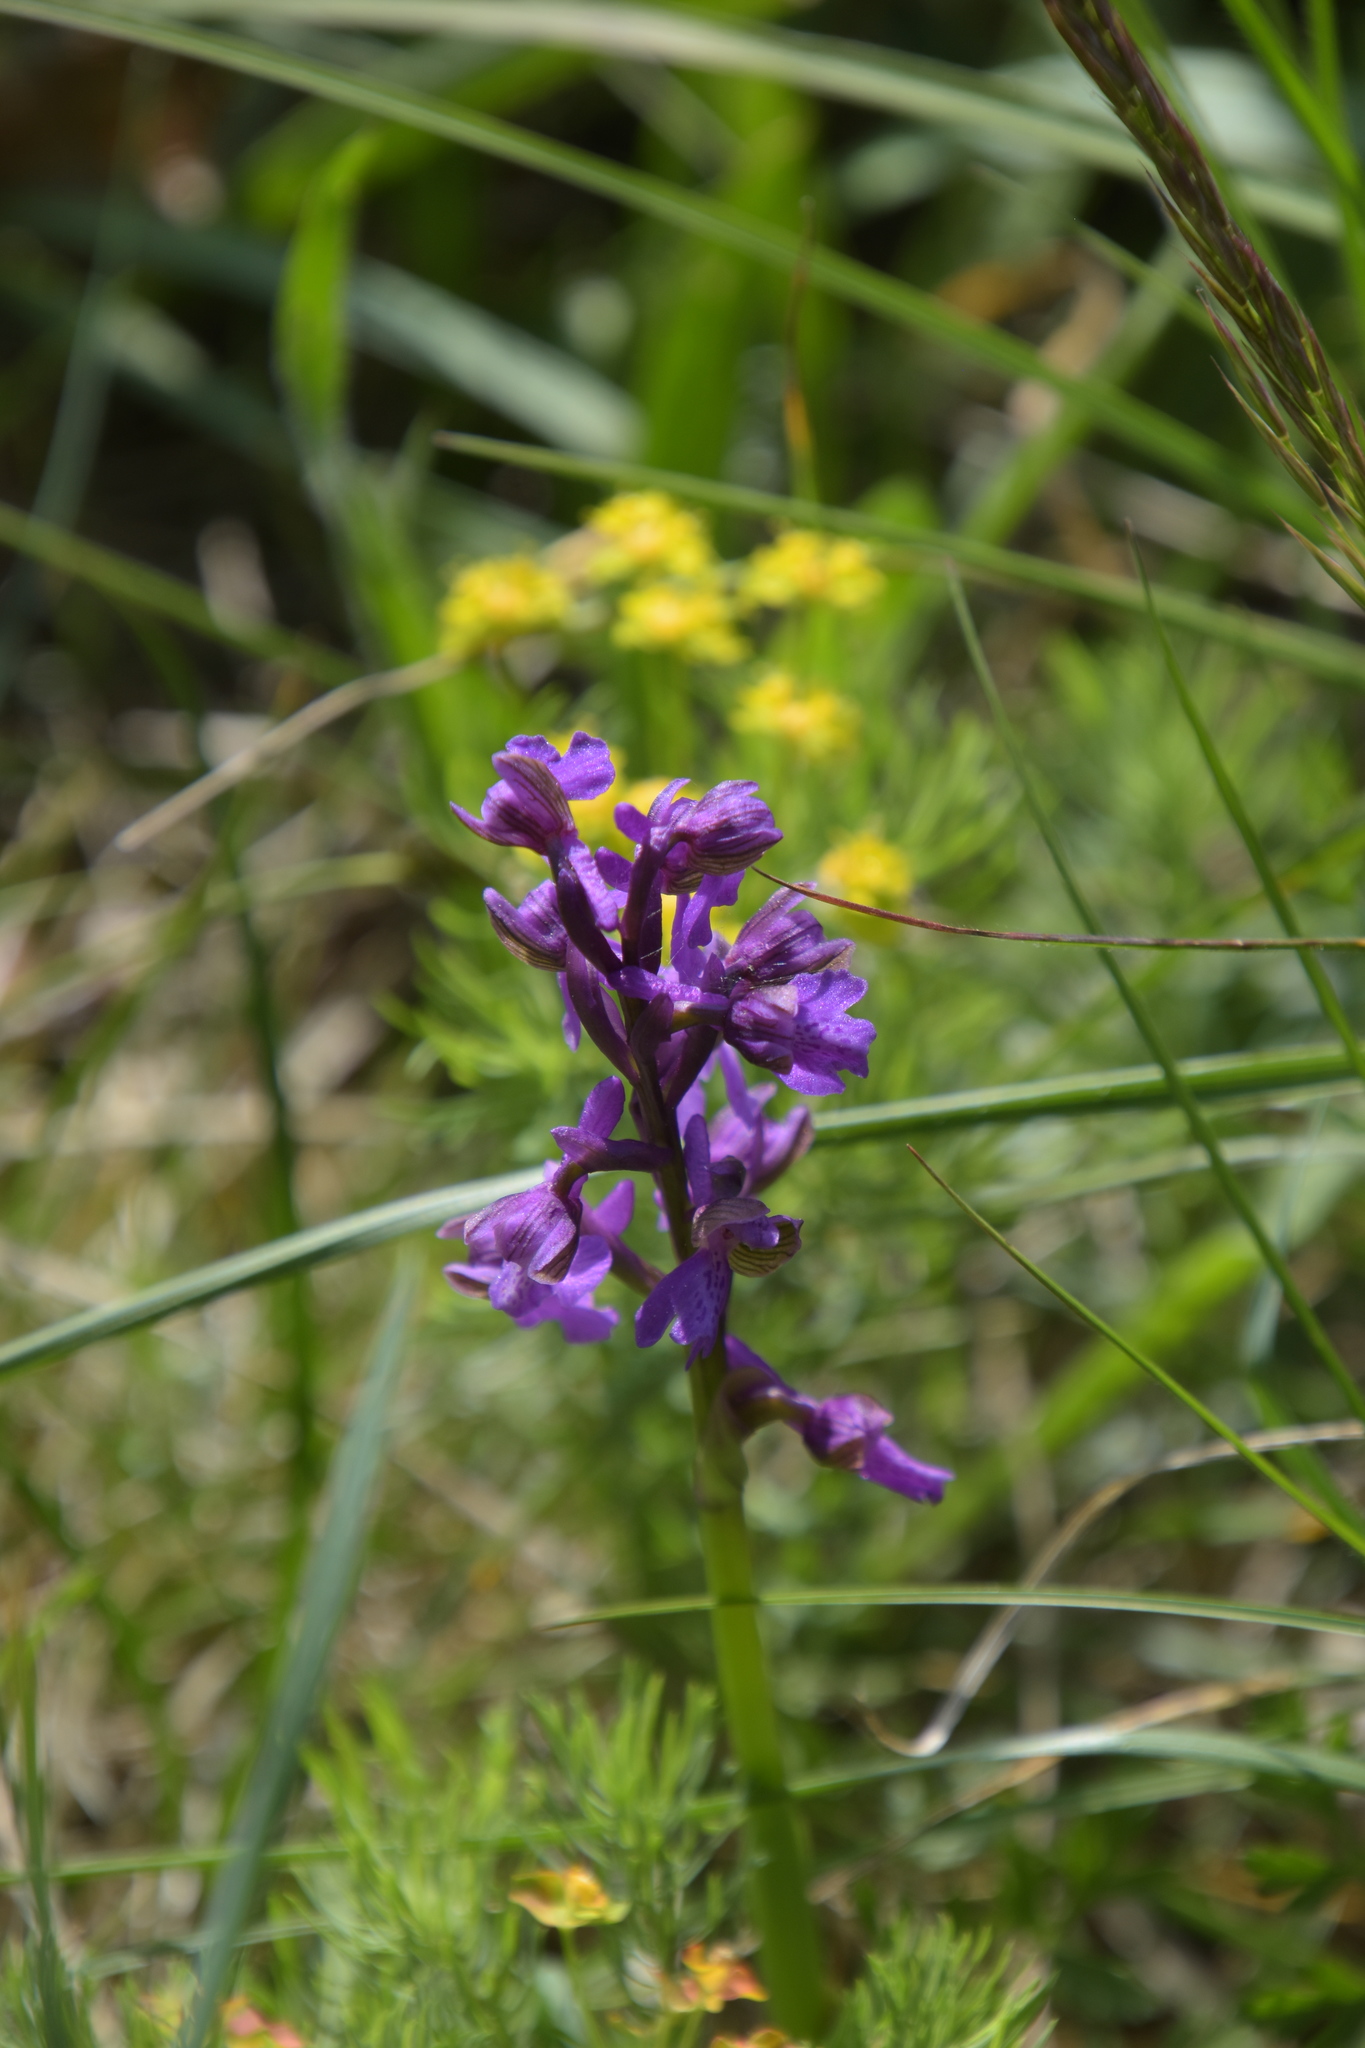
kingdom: Plantae
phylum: Tracheophyta
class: Liliopsida
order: Asparagales
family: Orchidaceae
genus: Anacamptis
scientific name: Anacamptis morio
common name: Green-winged orchid
